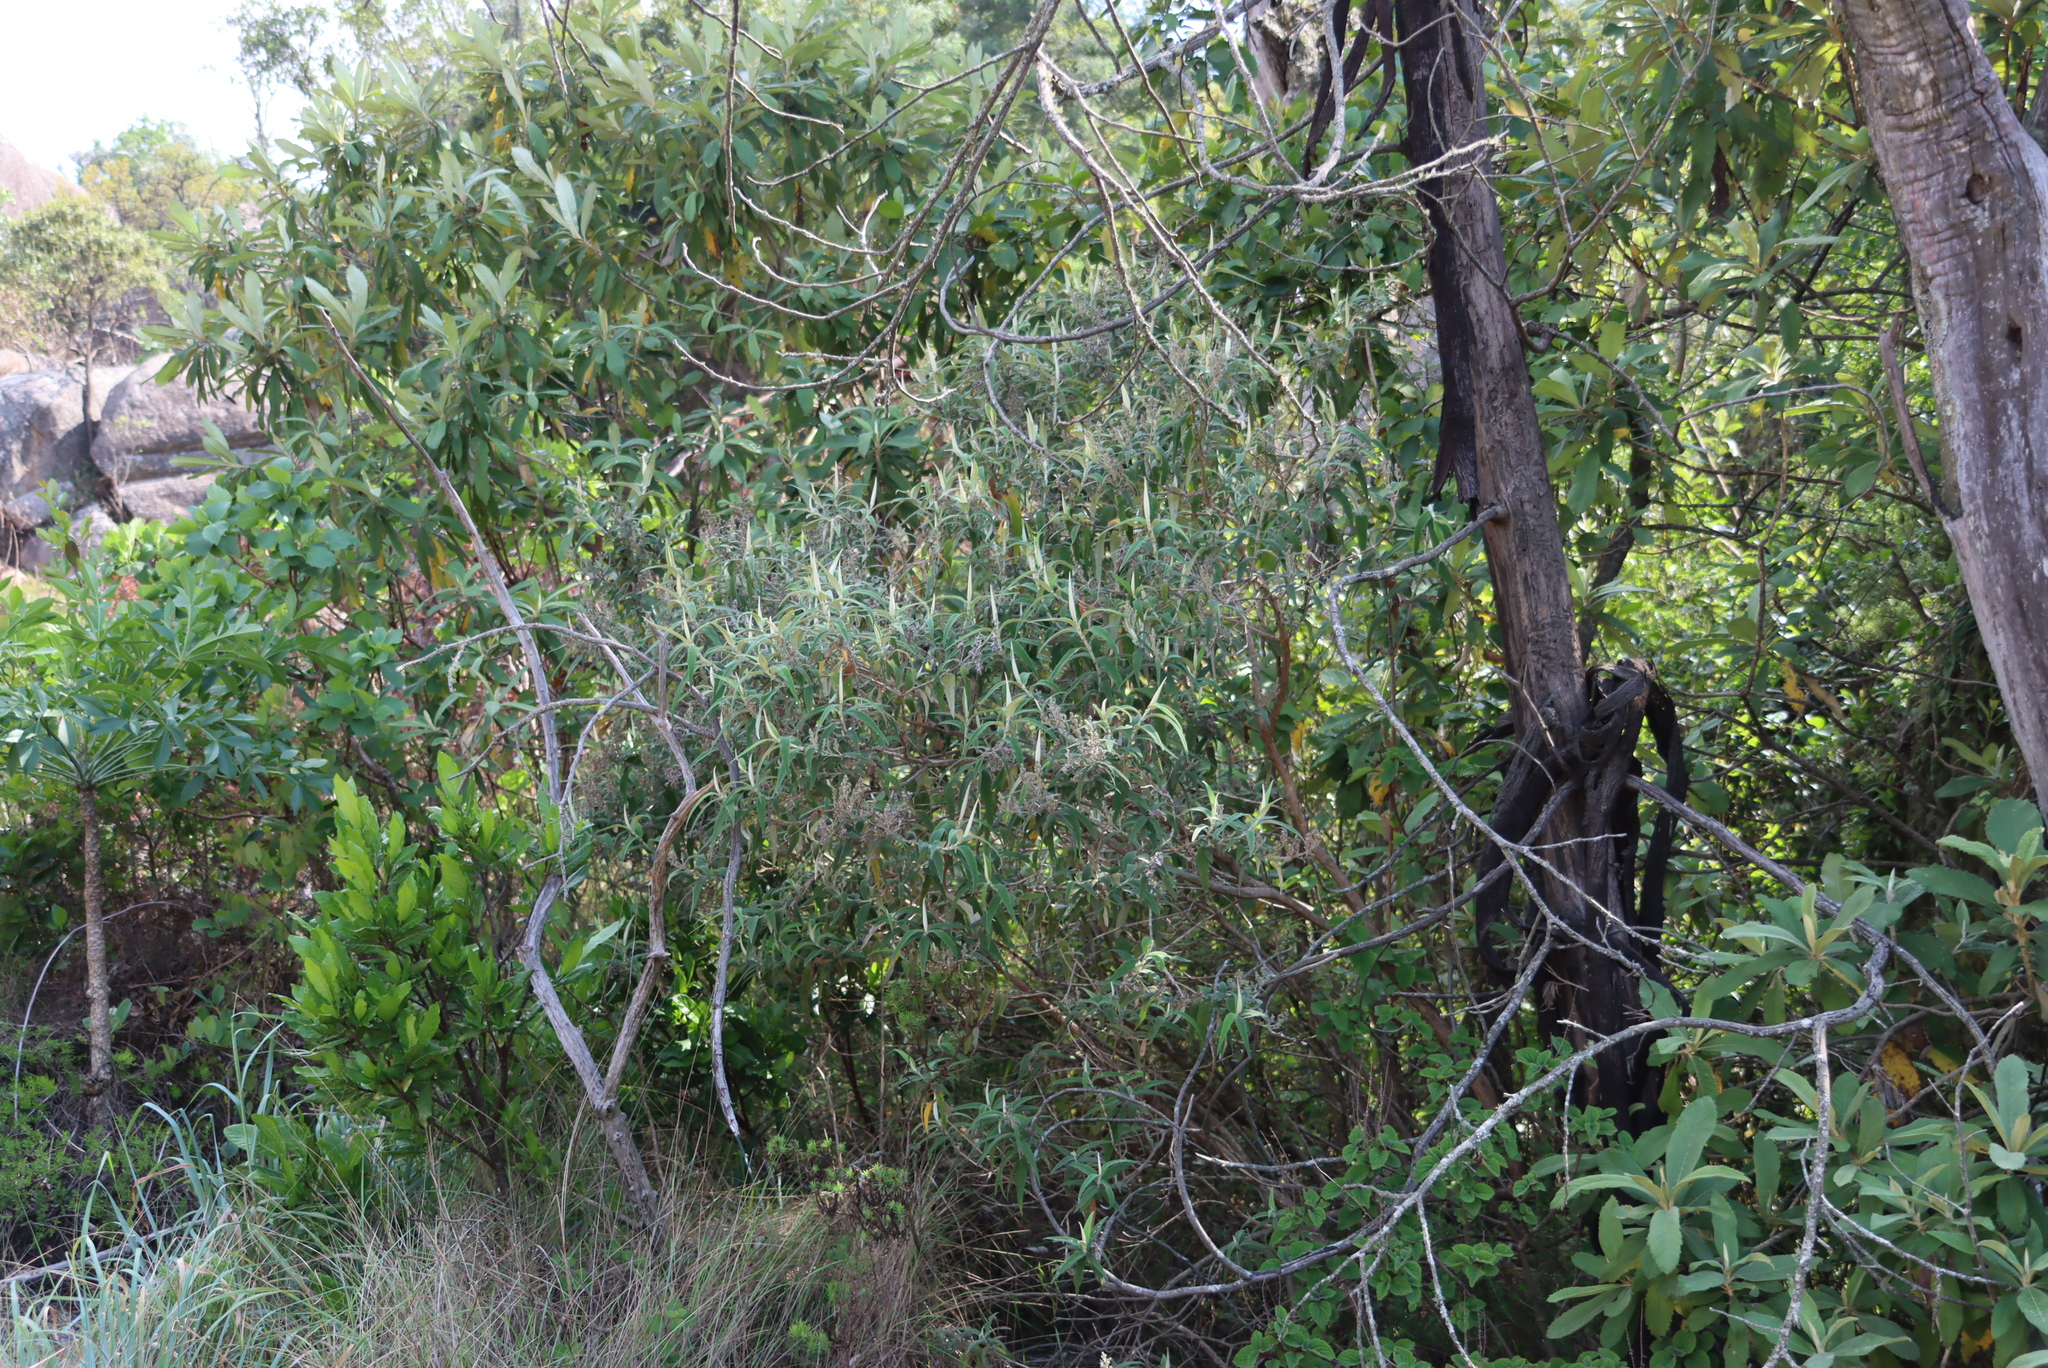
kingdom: Plantae
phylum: Tracheophyta
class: Magnoliopsida
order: Lamiales
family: Scrophulariaceae
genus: Buddleja
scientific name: Buddleja salviifolia
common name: Sagewood
